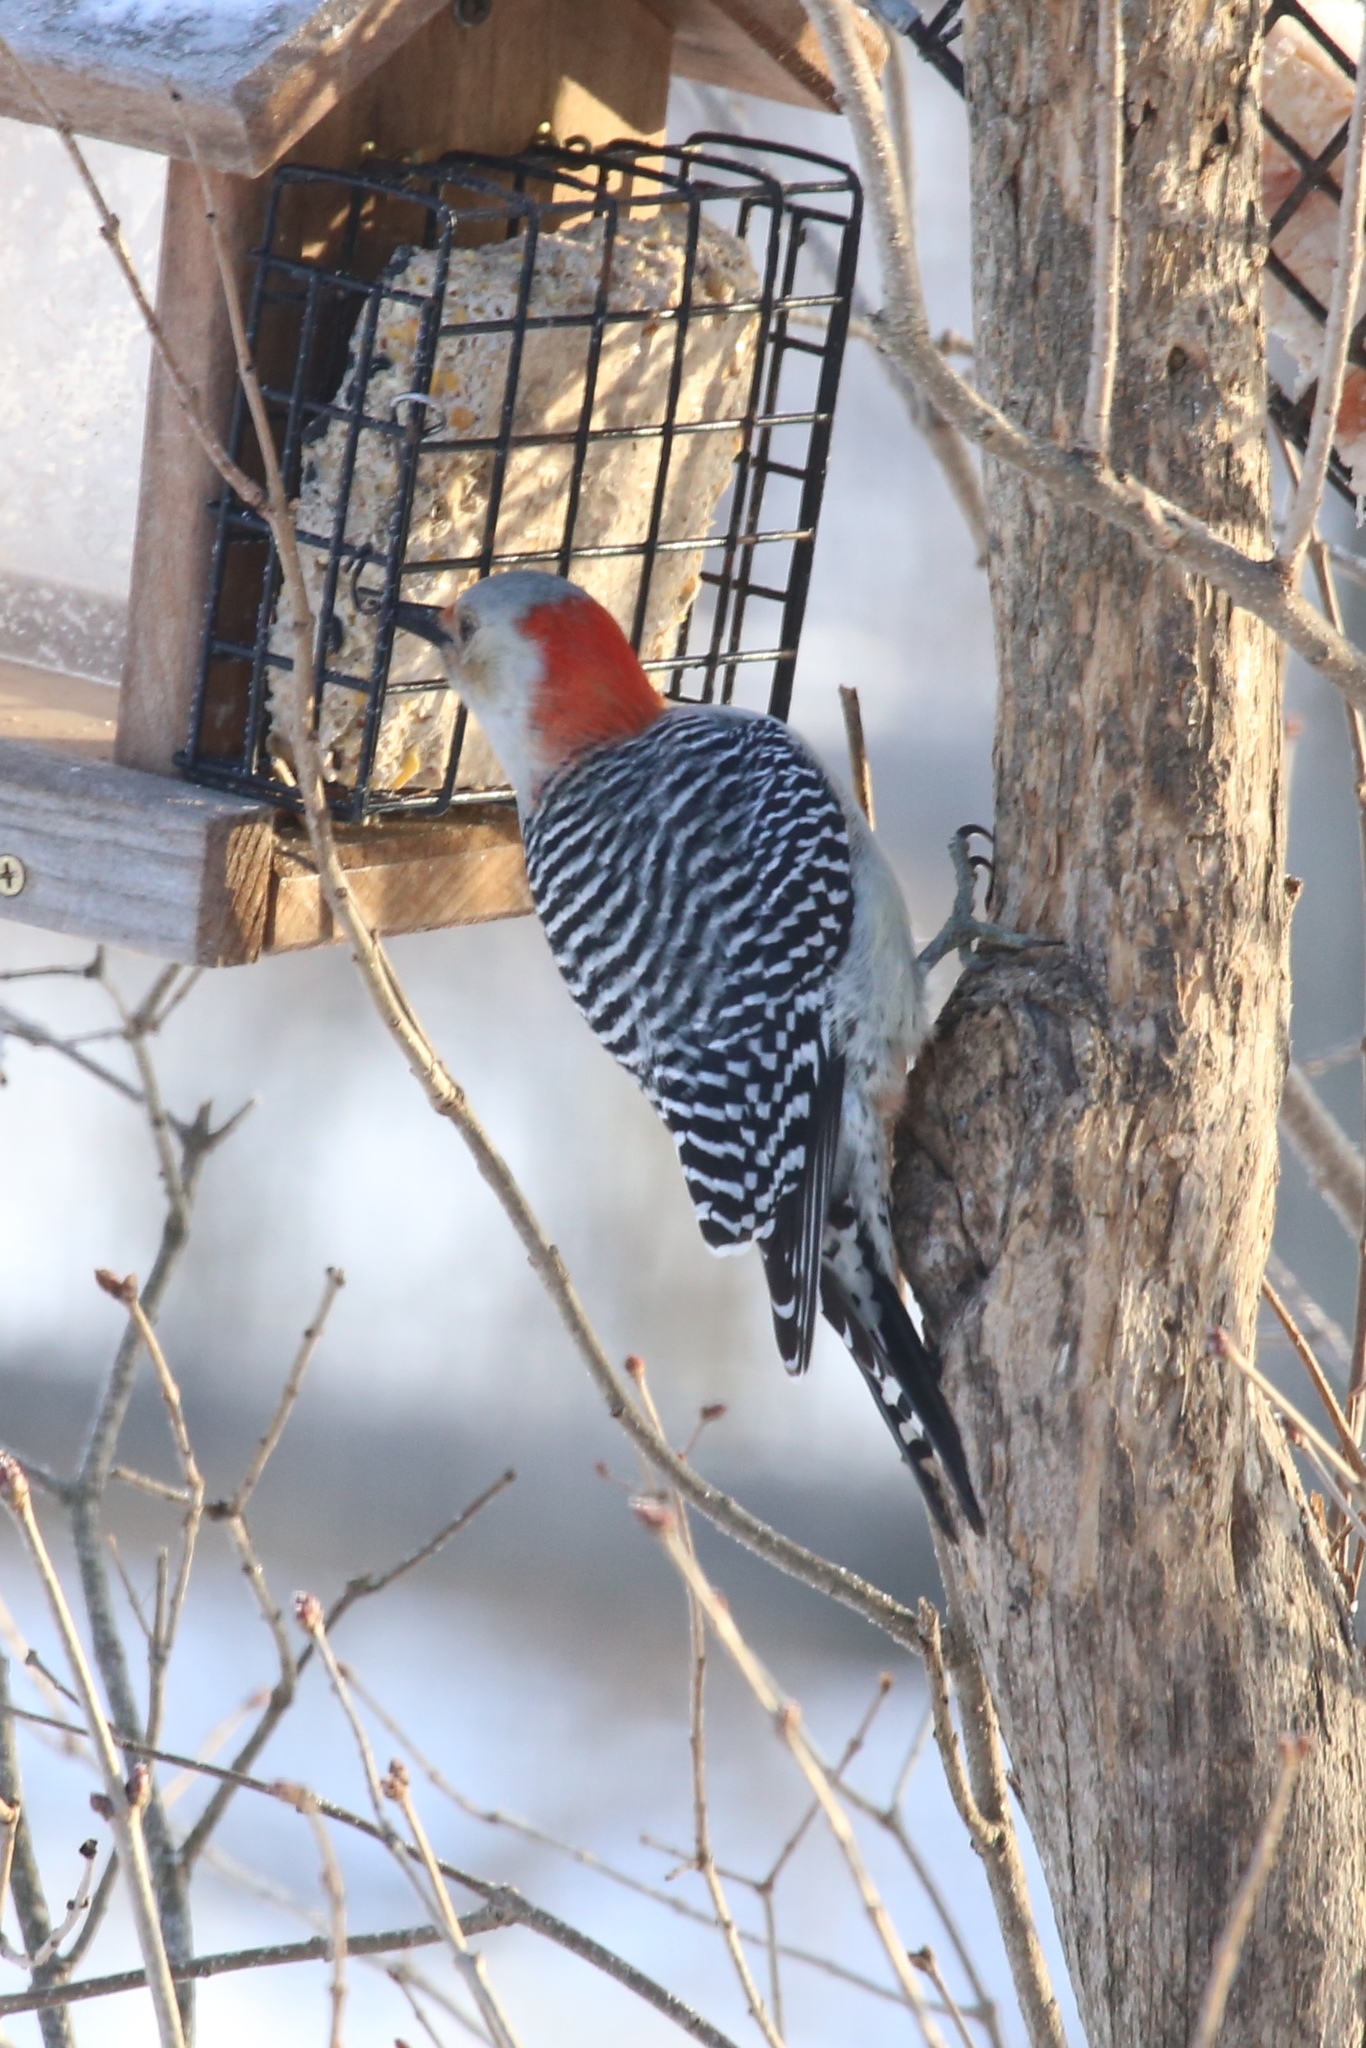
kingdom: Animalia
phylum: Chordata
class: Aves
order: Piciformes
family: Picidae
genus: Melanerpes
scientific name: Melanerpes carolinus
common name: Red-bellied woodpecker
